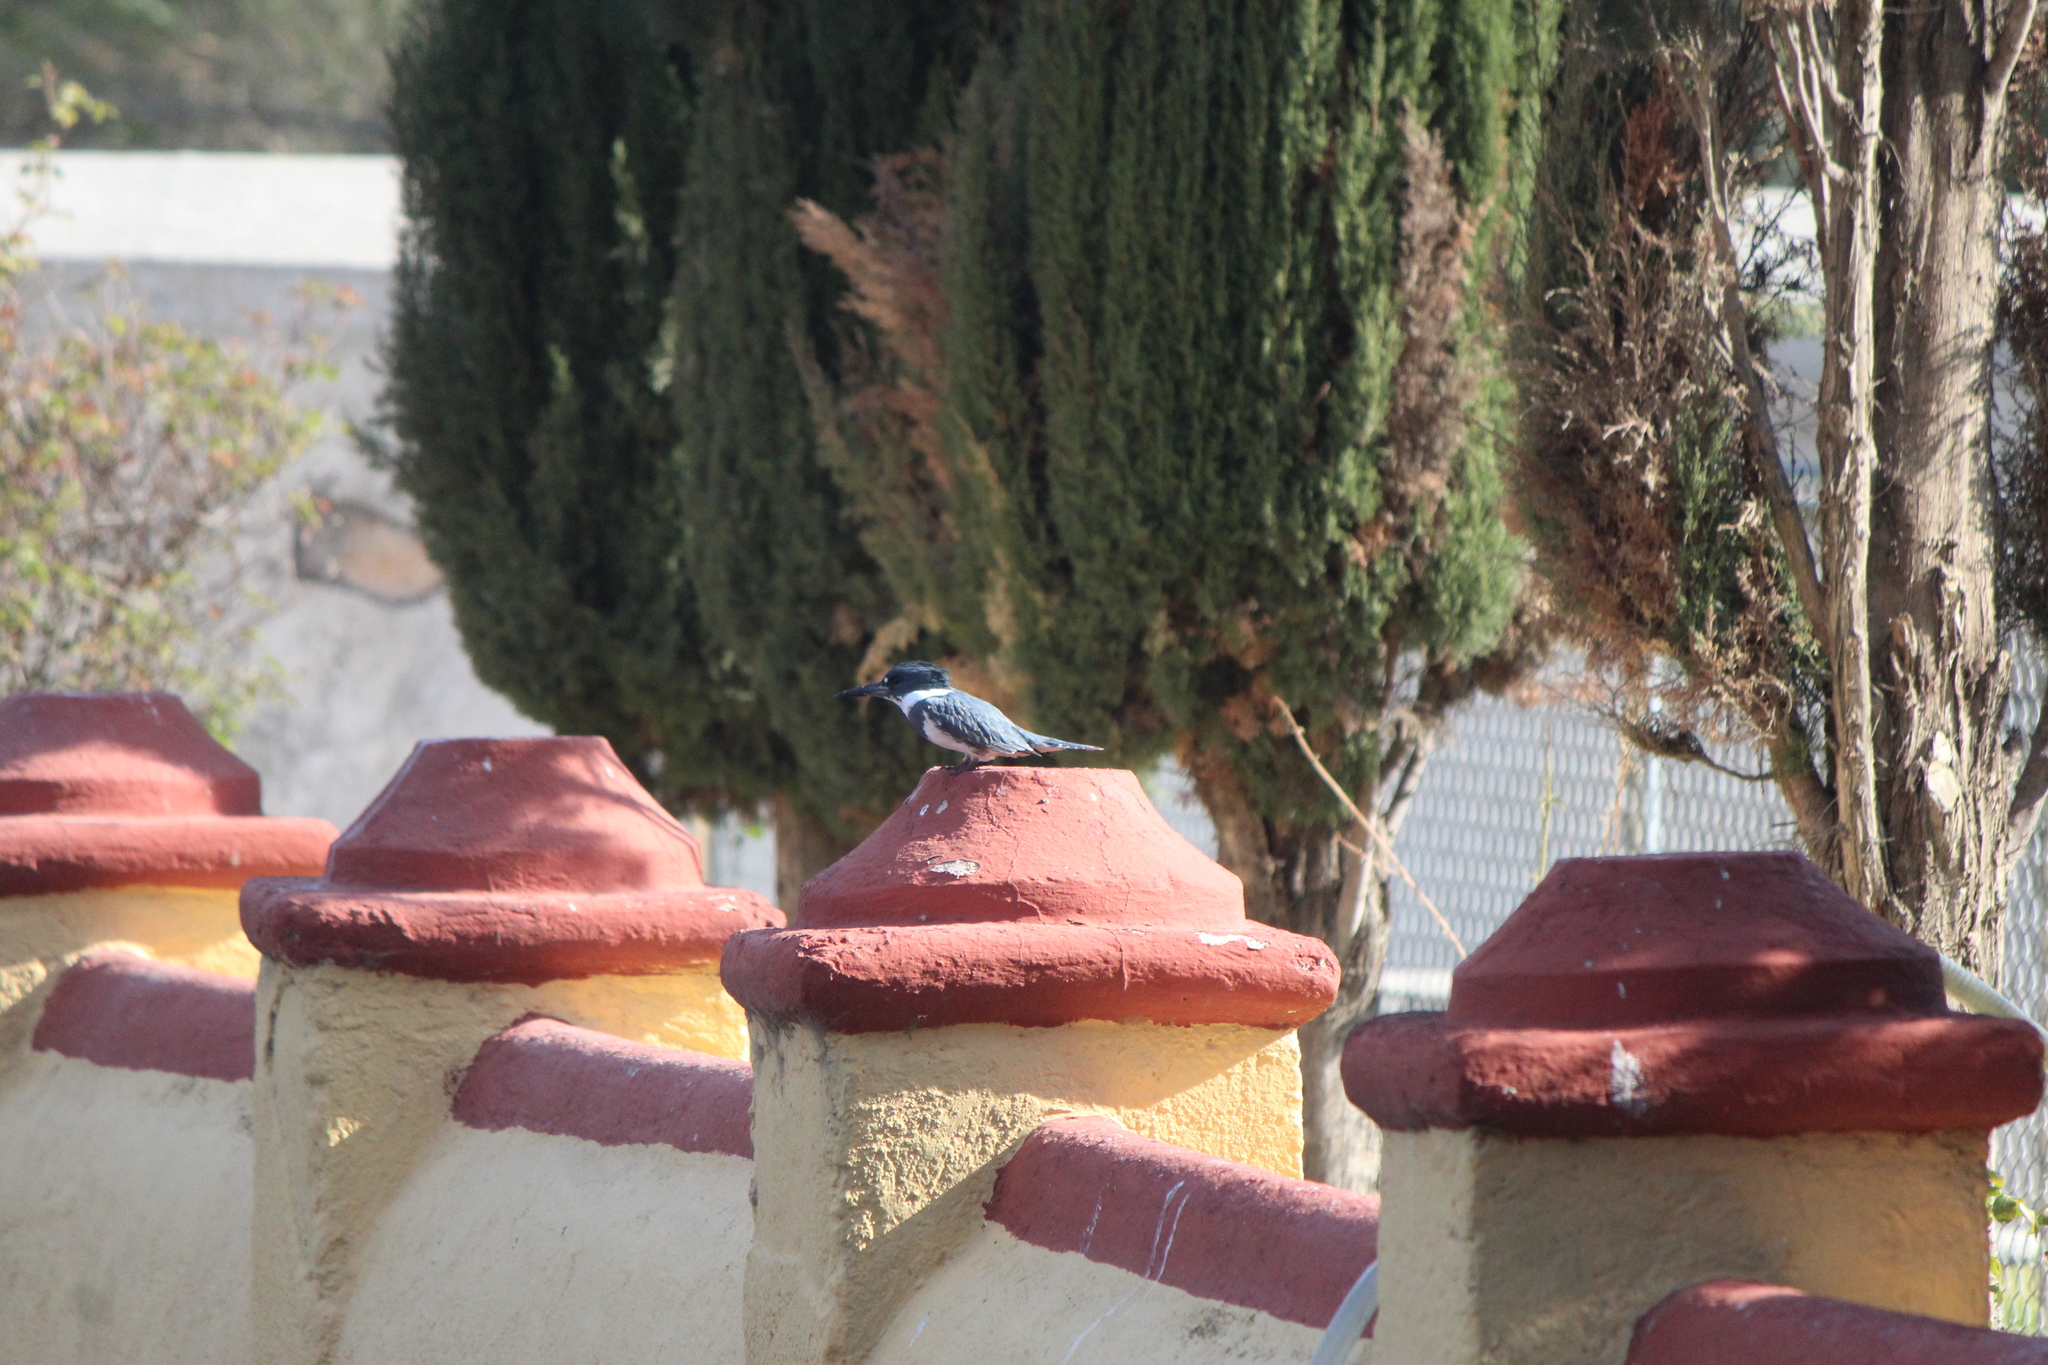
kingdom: Animalia
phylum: Chordata
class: Aves
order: Coraciiformes
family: Alcedinidae
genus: Megaceryle
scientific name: Megaceryle alcyon
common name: Belted kingfisher
